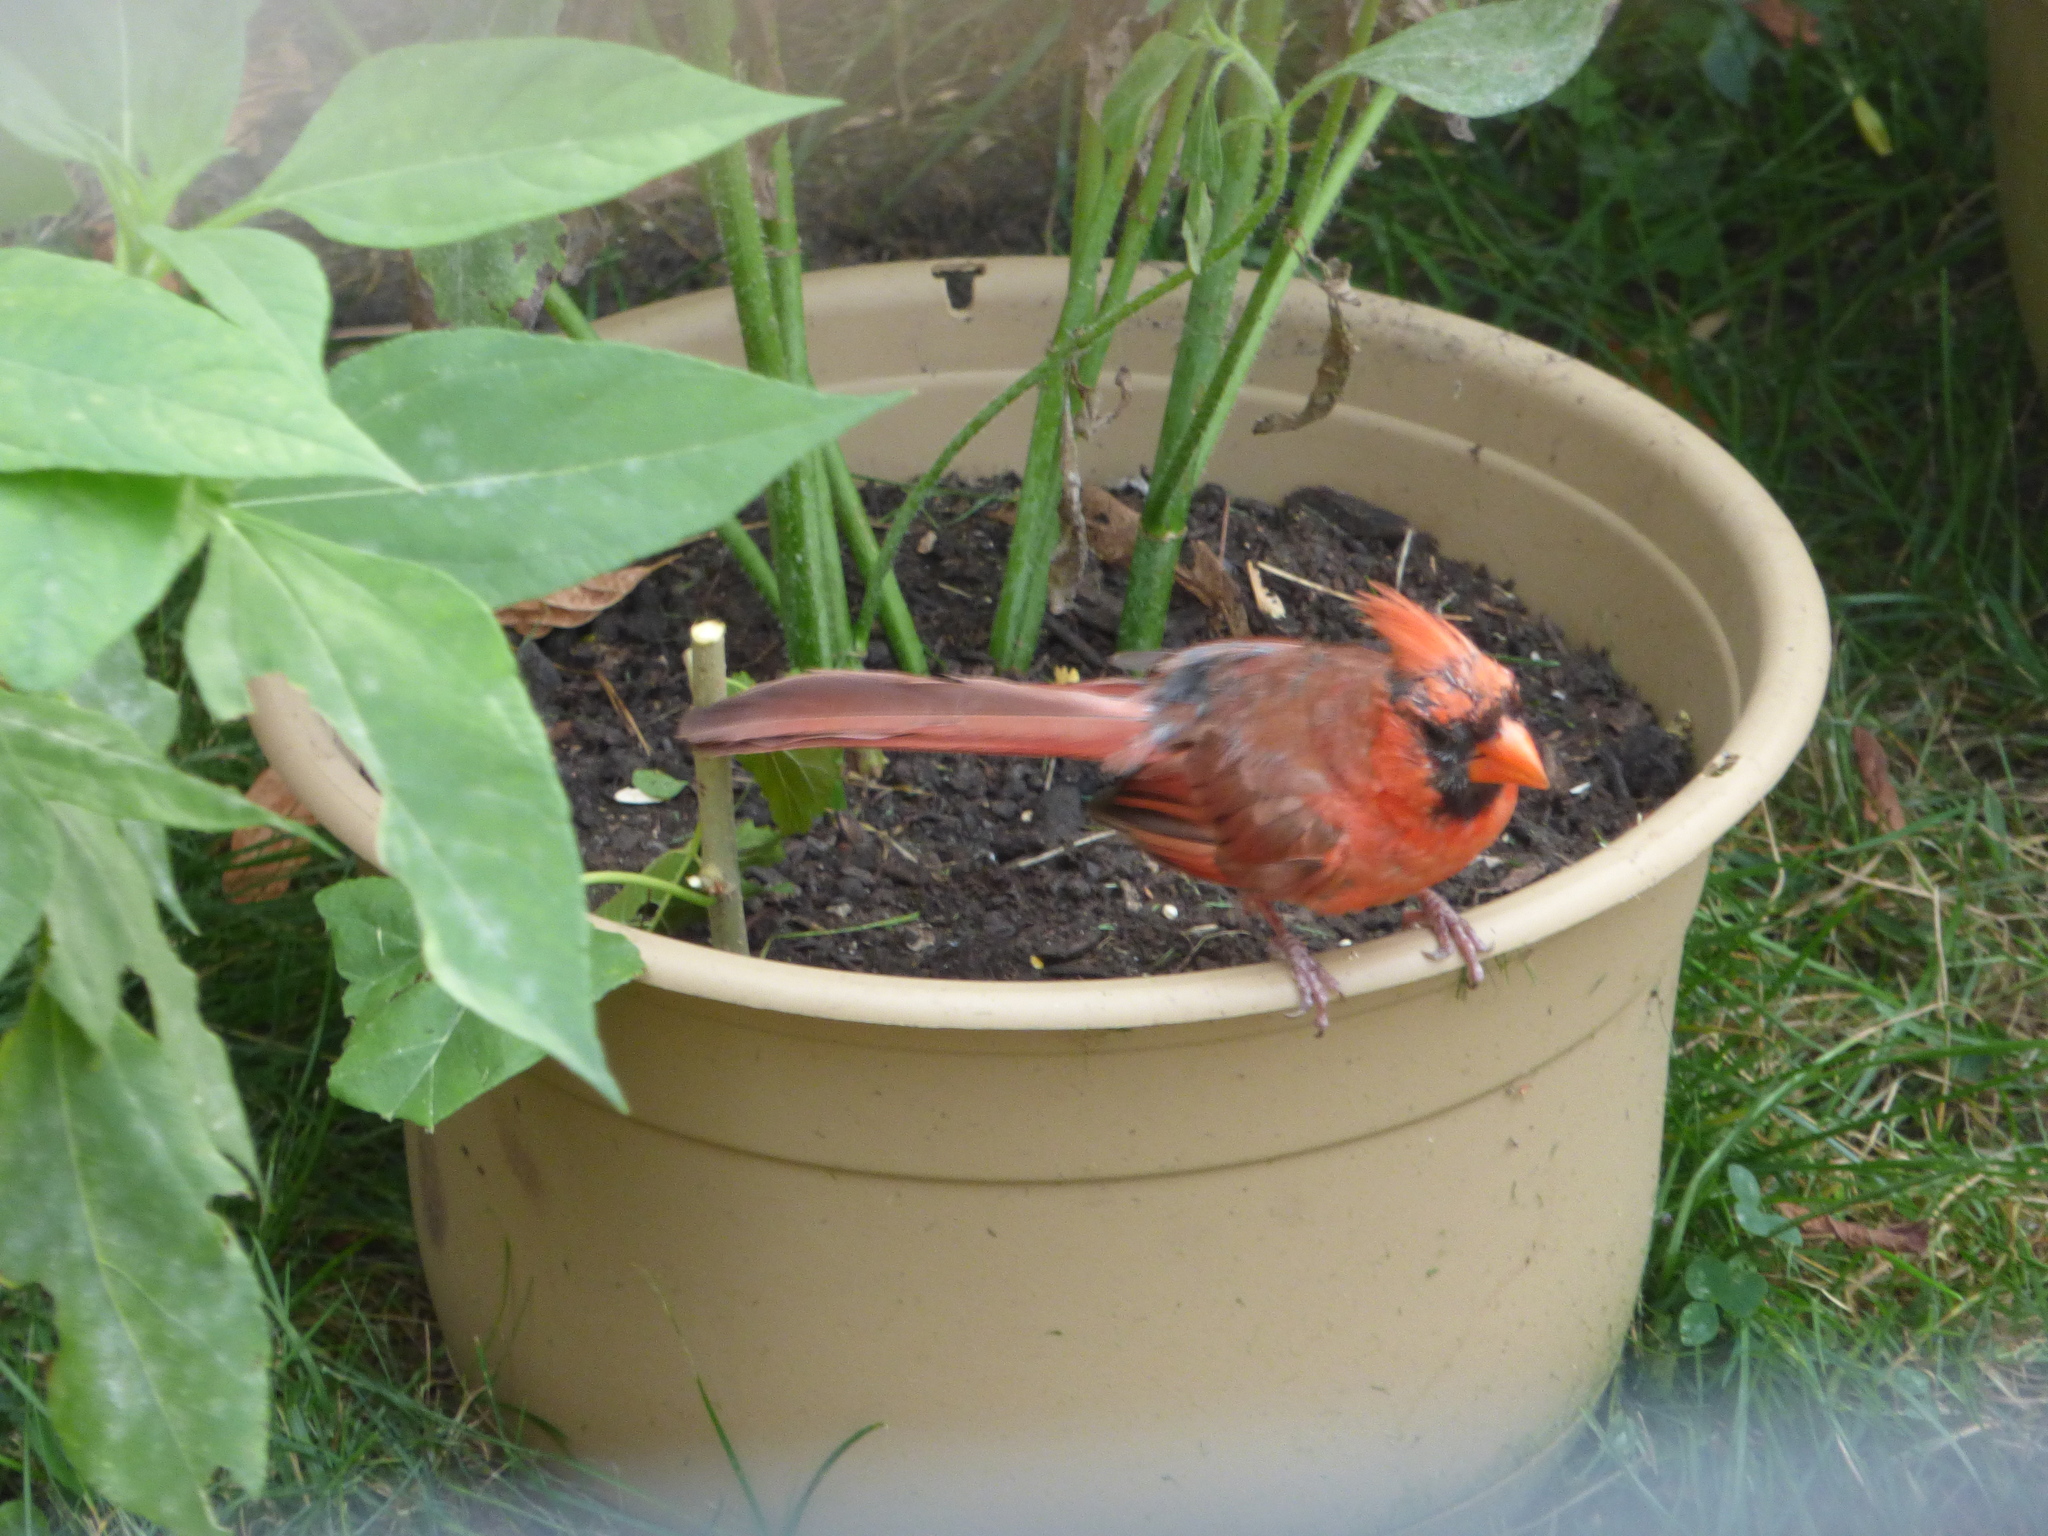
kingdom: Animalia
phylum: Chordata
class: Aves
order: Passeriformes
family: Cardinalidae
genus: Cardinalis
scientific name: Cardinalis cardinalis
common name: Northern cardinal
